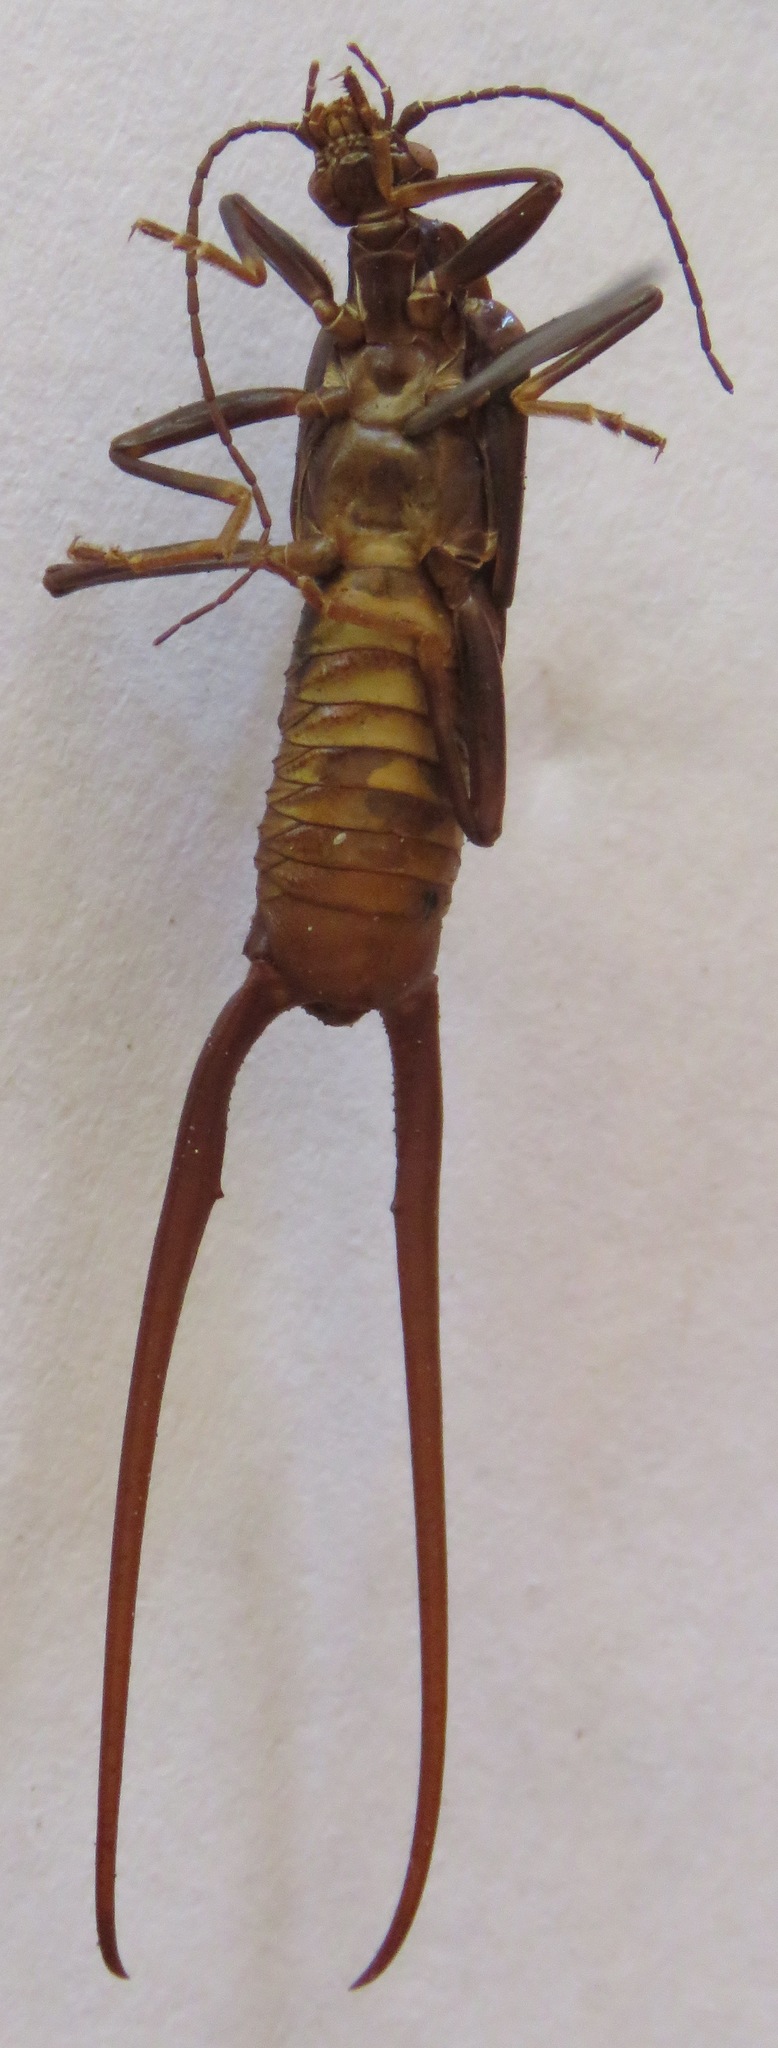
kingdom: Animalia
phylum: Arthropoda
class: Insecta
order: Dermaptera
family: Spongiphoridae
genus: Spongiphora
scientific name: Spongiphora croceipennis
